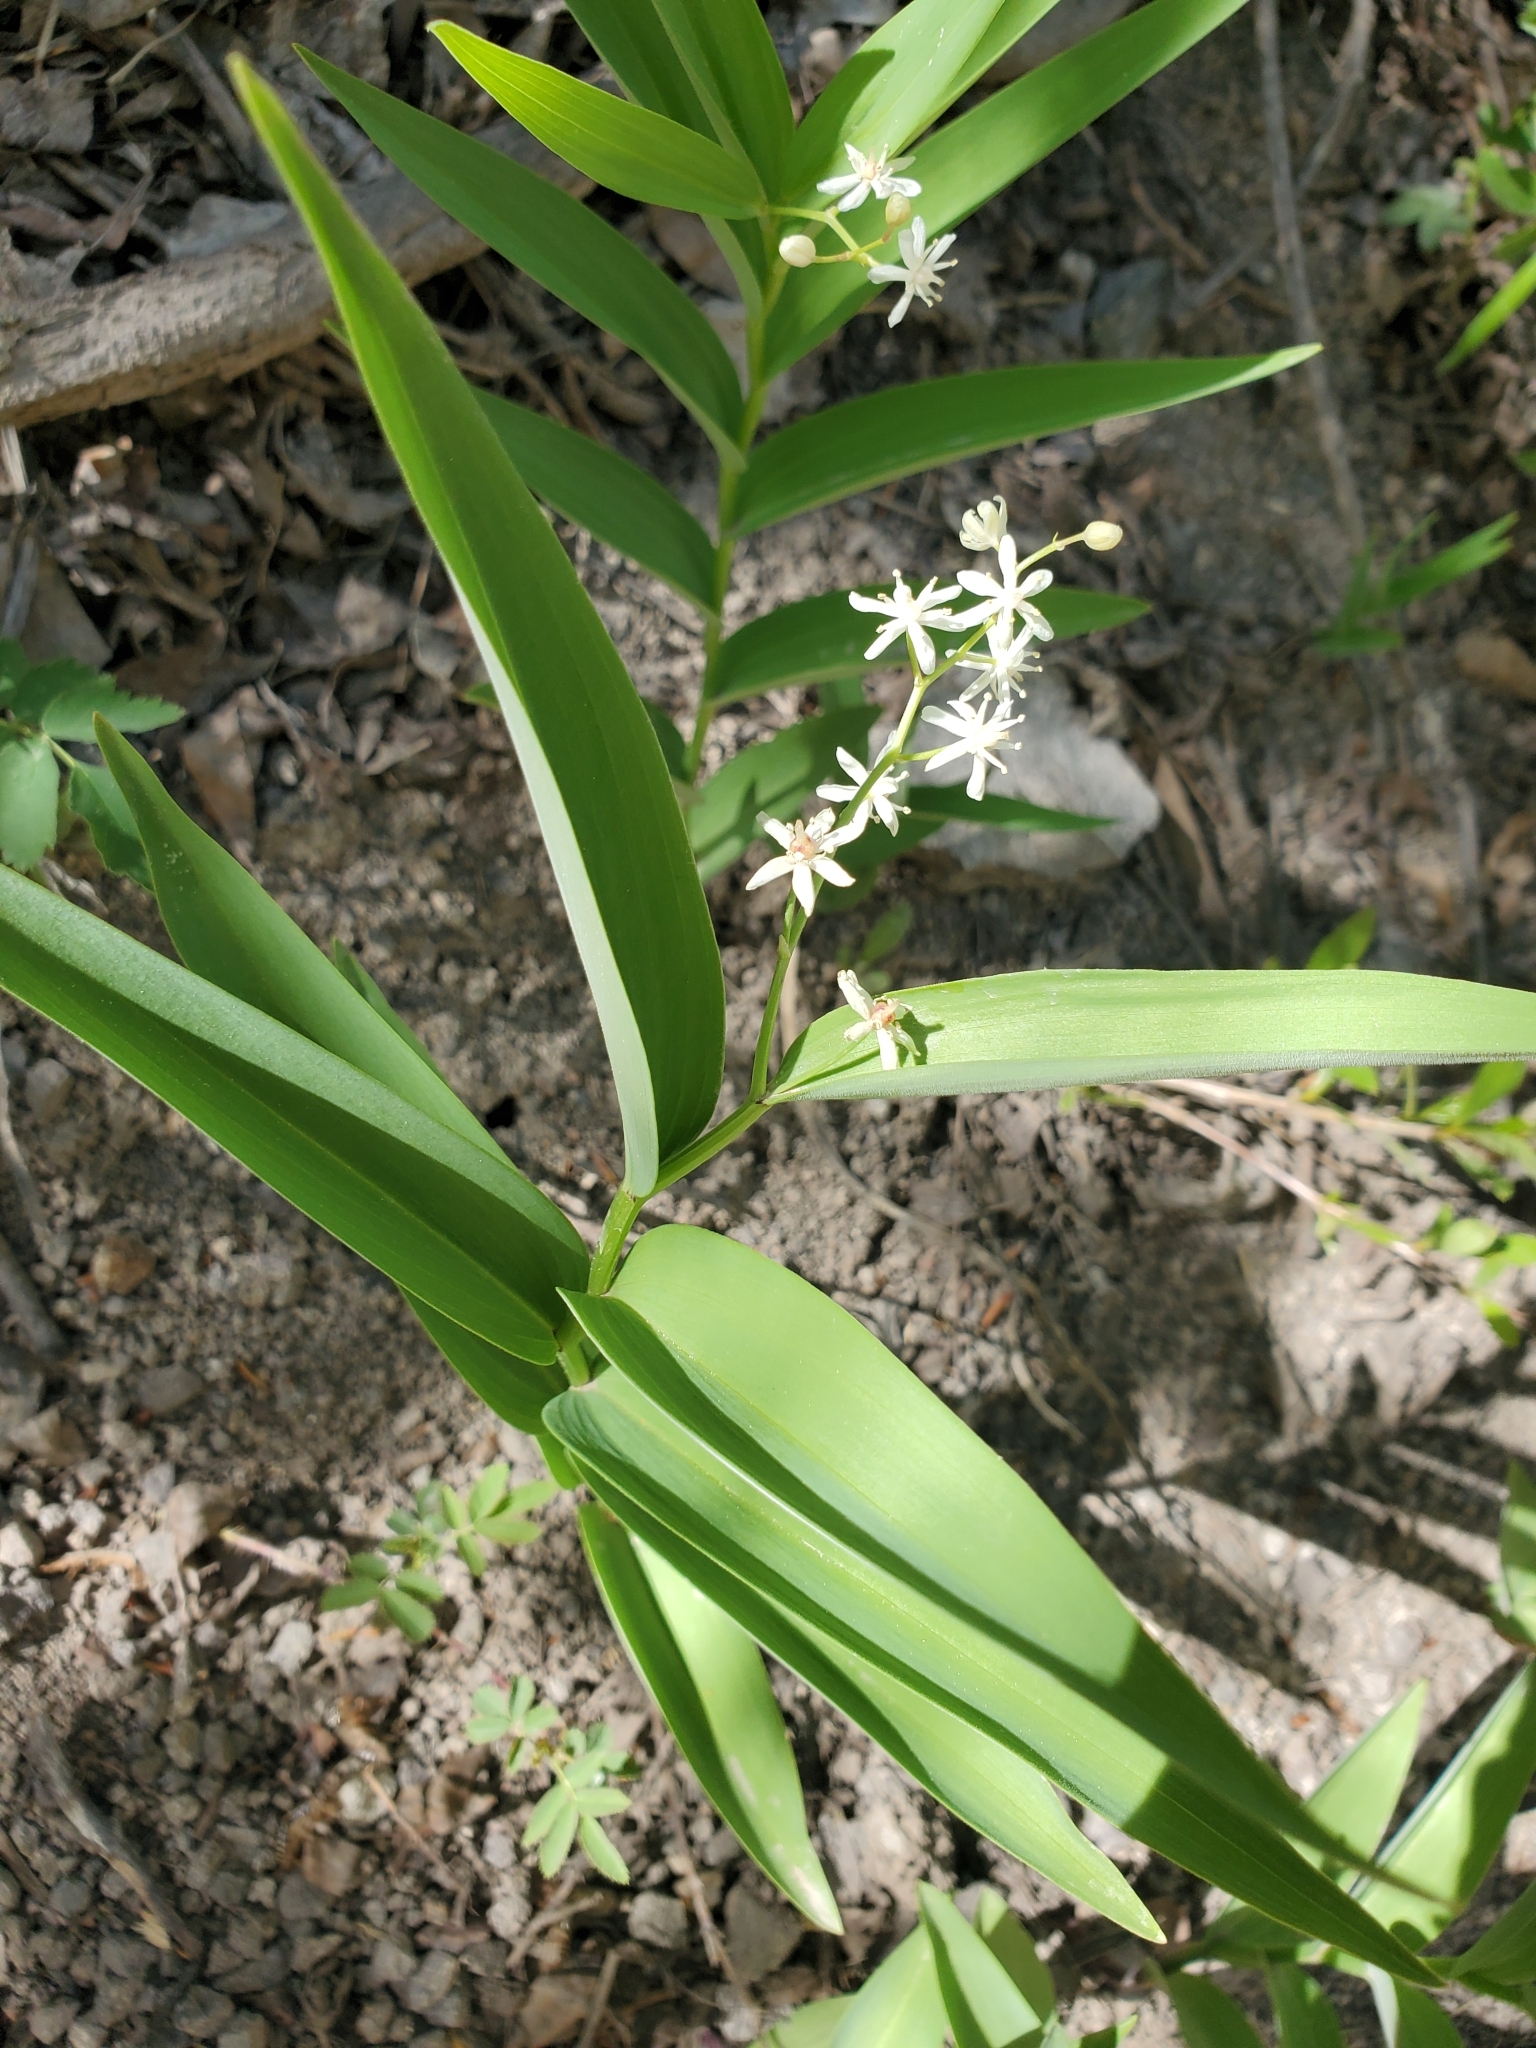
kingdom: Plantae
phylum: Tracheophyta
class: Liliopsida
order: Asparagales
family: Asparagaceae
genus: Maianthemum
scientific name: Maianthemum stellatum
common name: Little false solomon's seal
